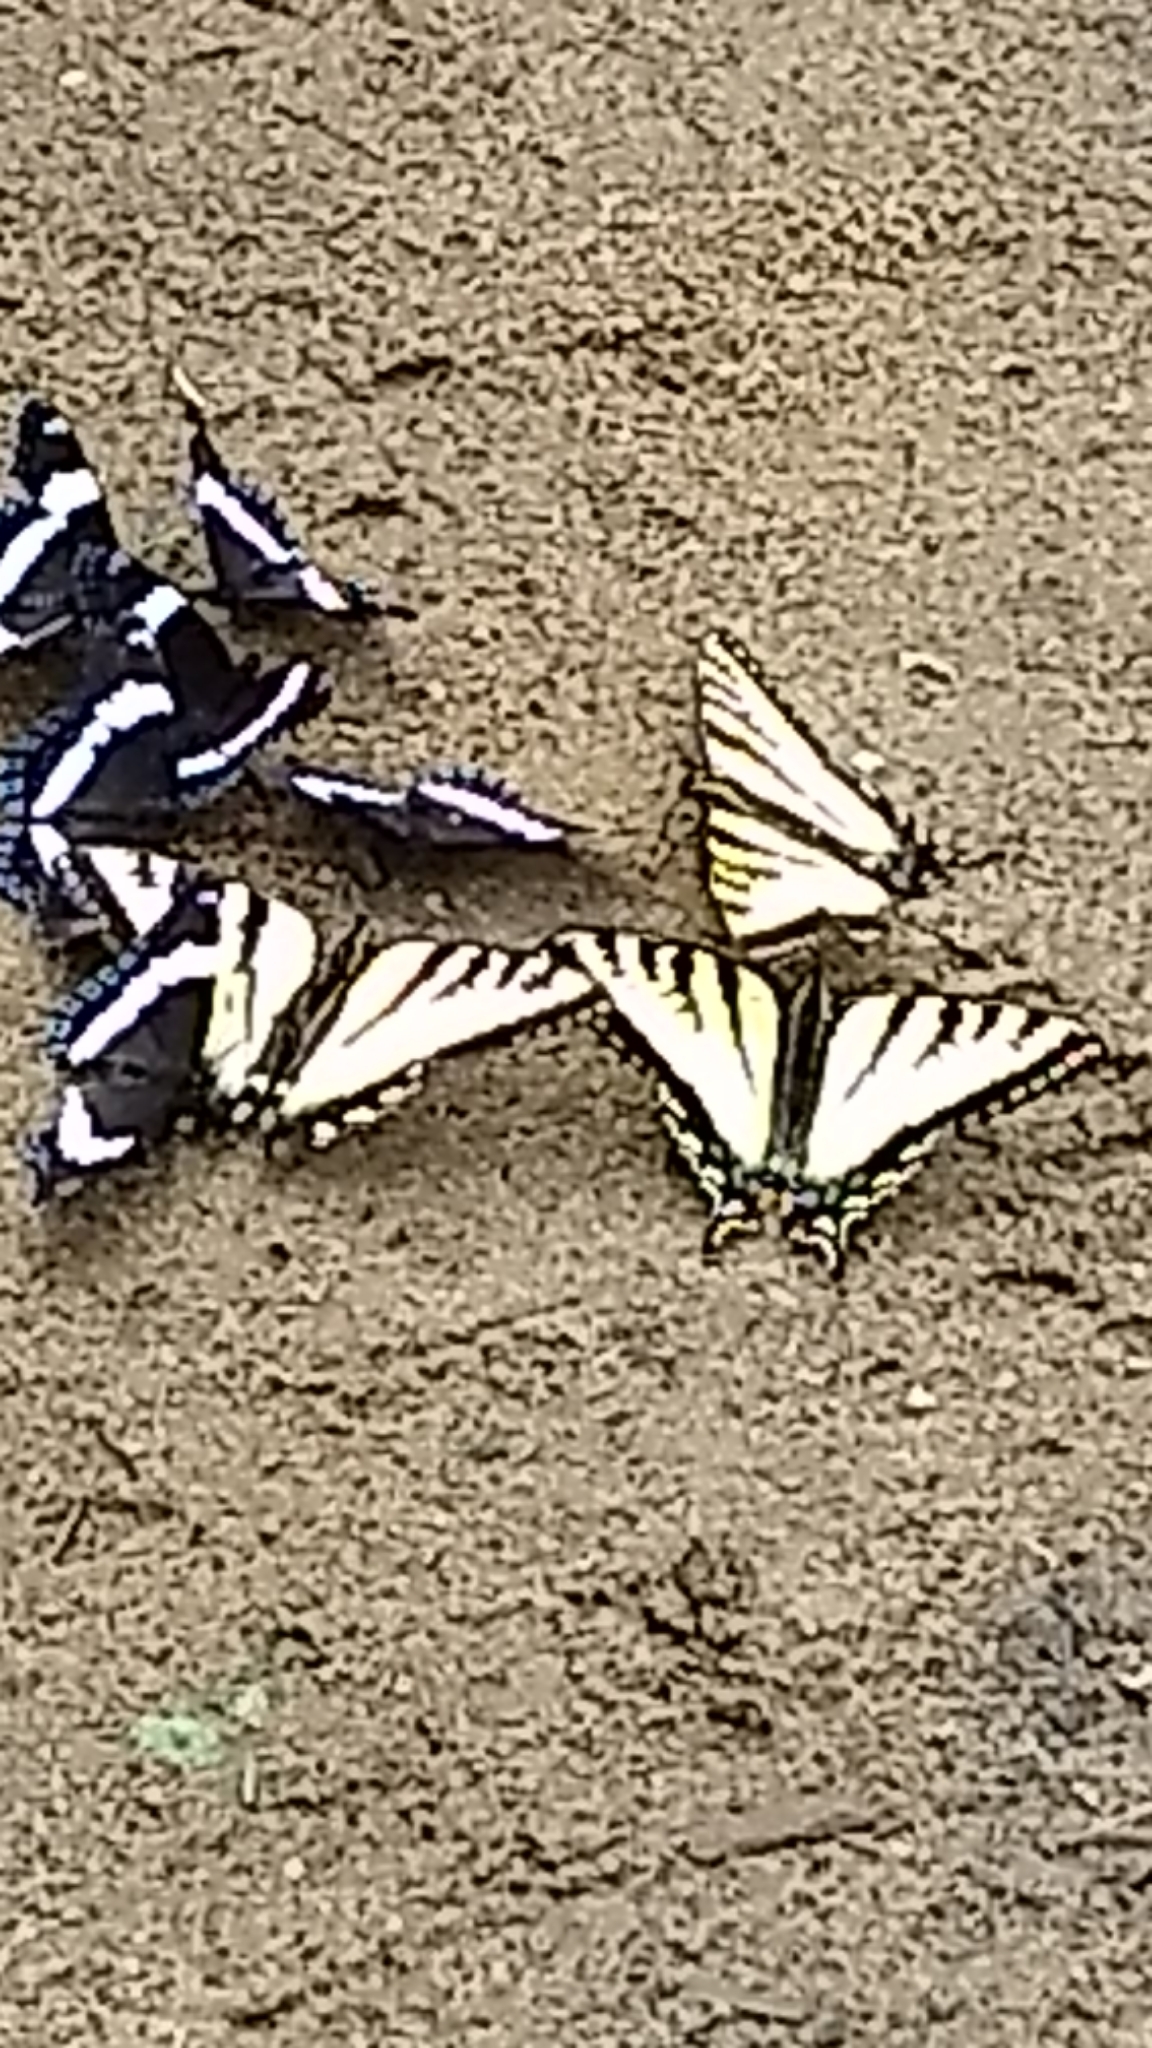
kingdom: Animalia
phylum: Arthropoda
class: Insecta
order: Lepidoptera
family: Papilionidae
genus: Papilio
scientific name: Papilio canadensis
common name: Canadian tiger swallowtail
